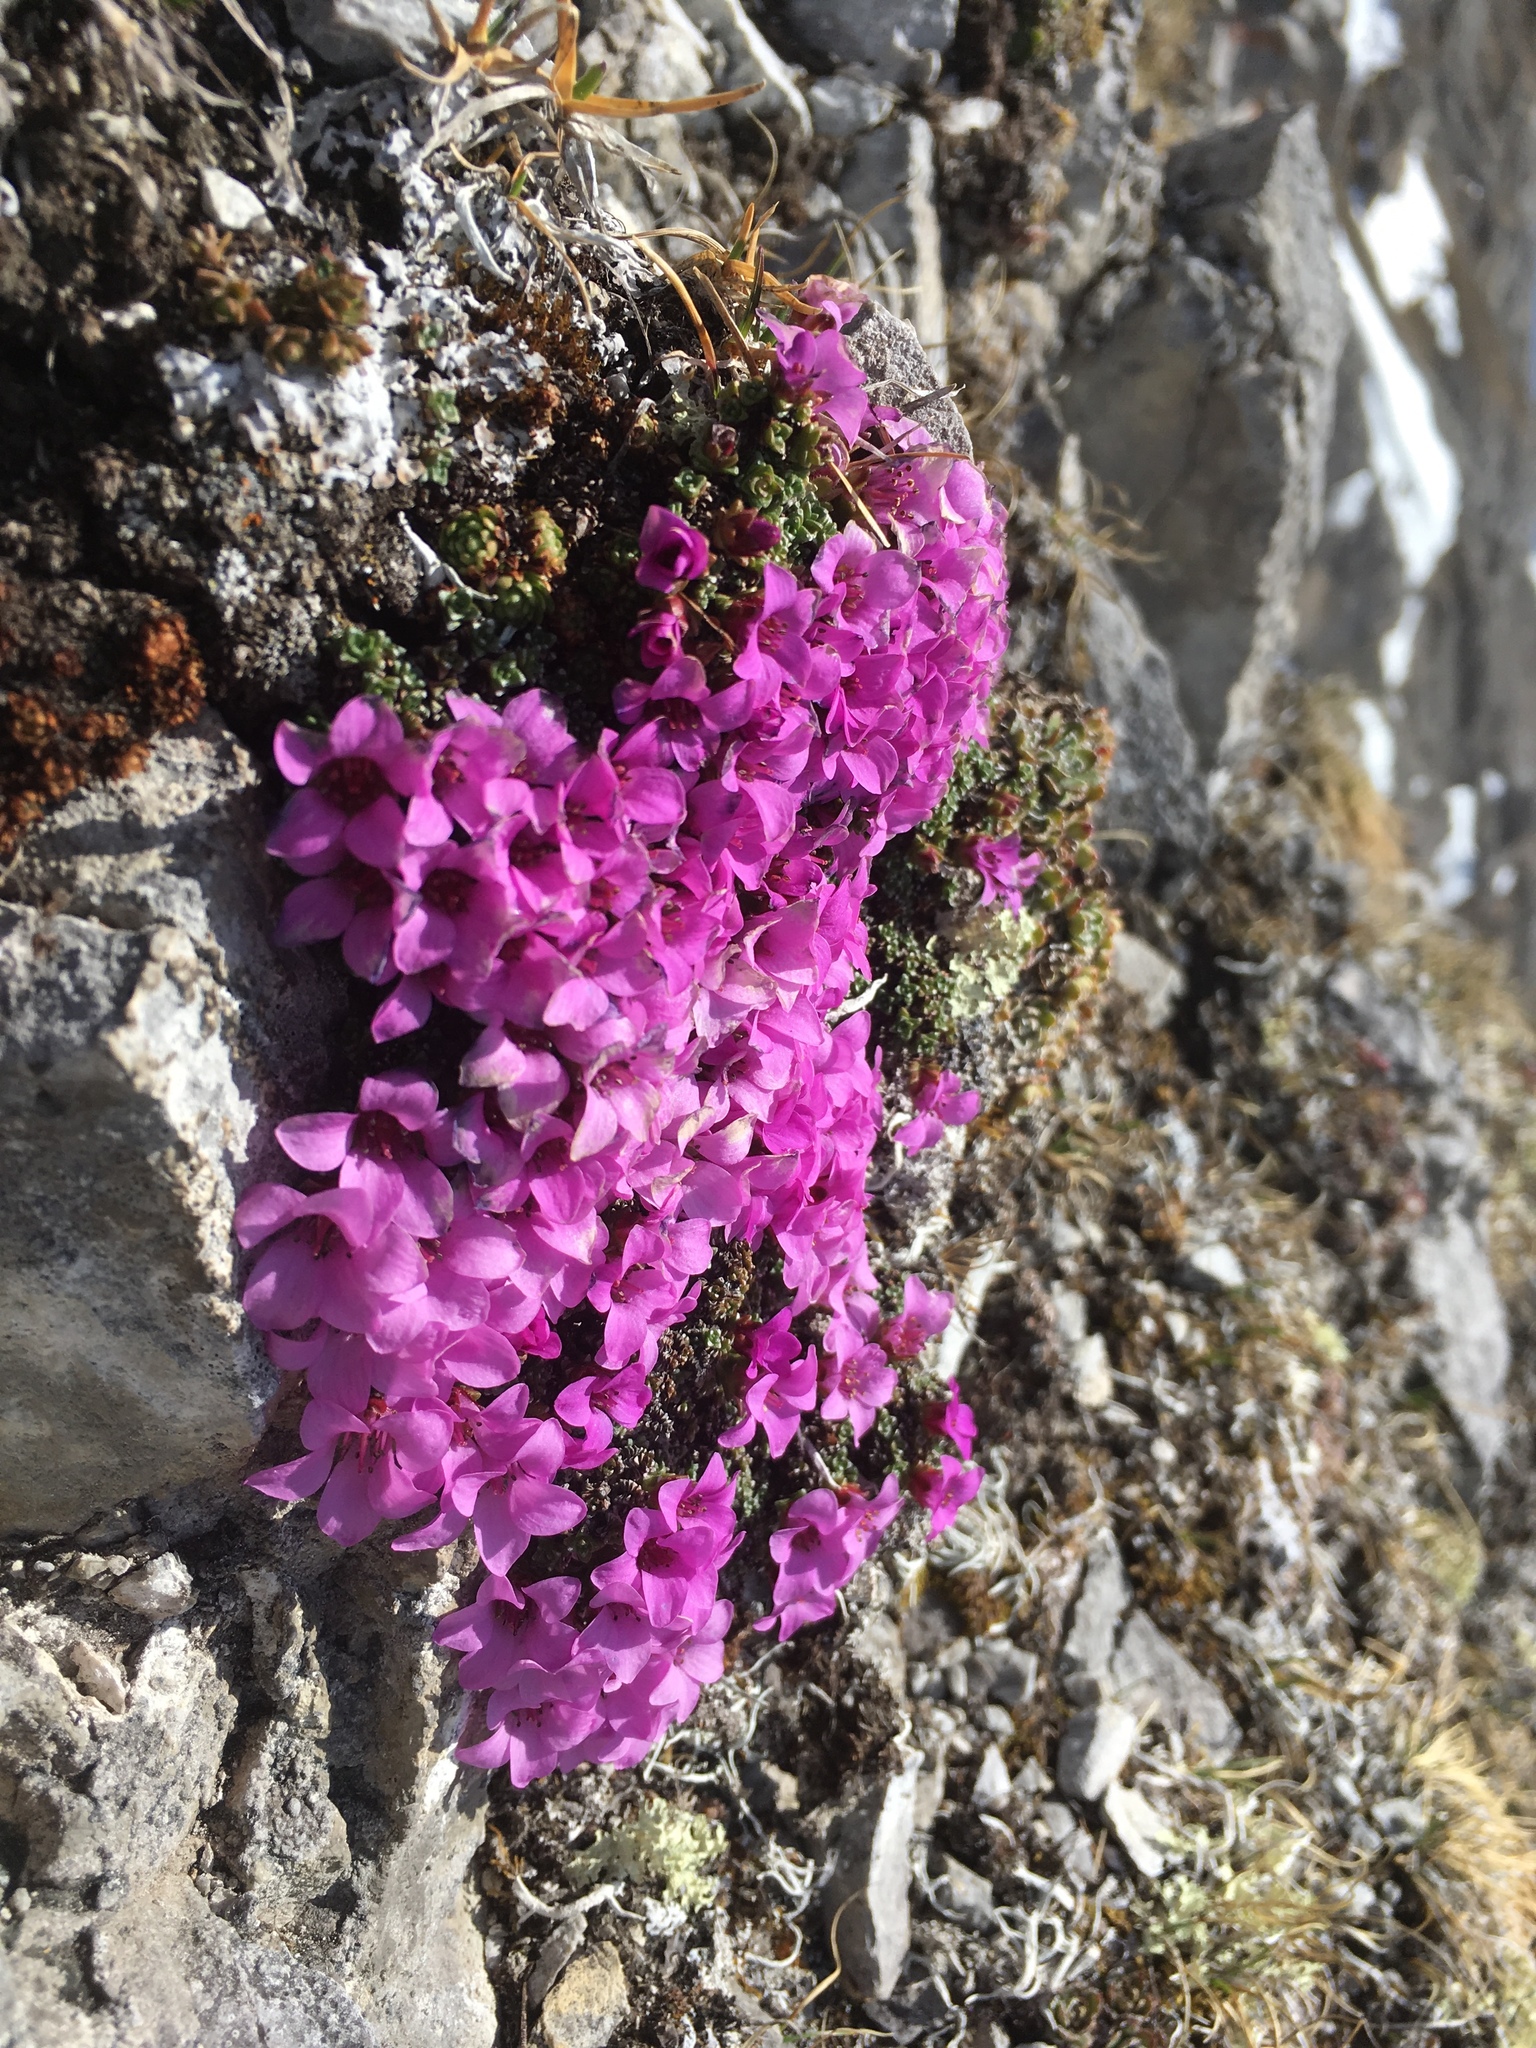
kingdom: Plantae
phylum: Tracheophyta
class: Magnoliopsida
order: Saxifragales
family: Saxifragaceae
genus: Saxifraga
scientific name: Saxifraga oppositifolia
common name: Purple saxifrage
